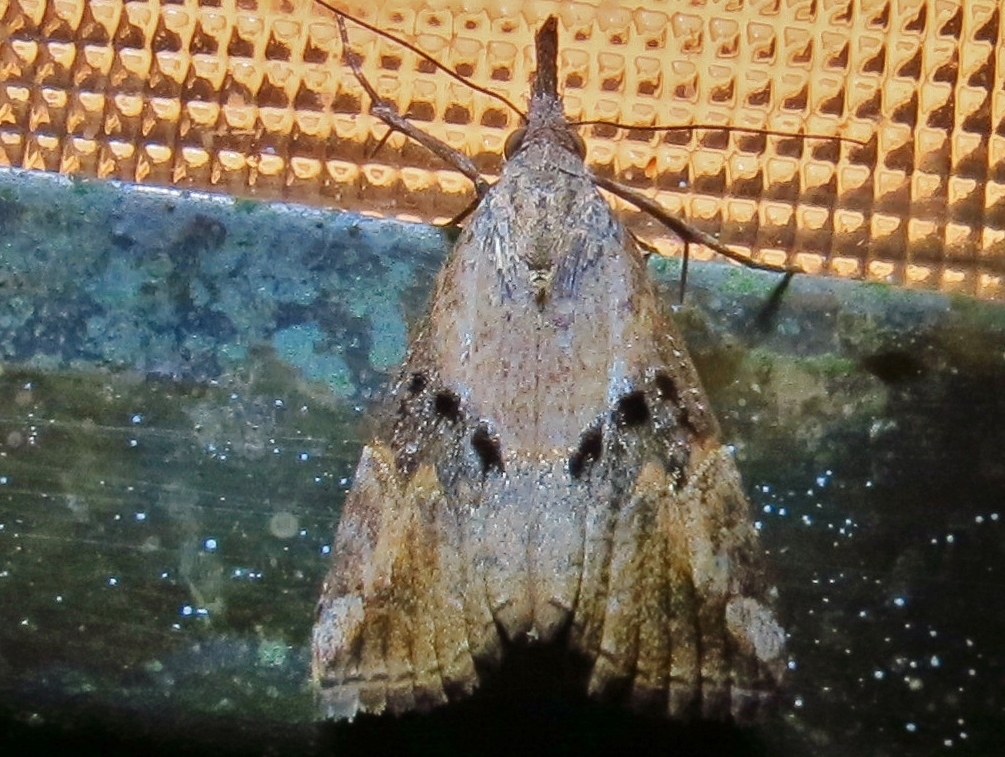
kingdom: Animalia
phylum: Arthropoda
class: Insecta
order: Lepidoptera
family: Erebidae
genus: Hypena
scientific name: Hypena minualis
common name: Sooty snout
